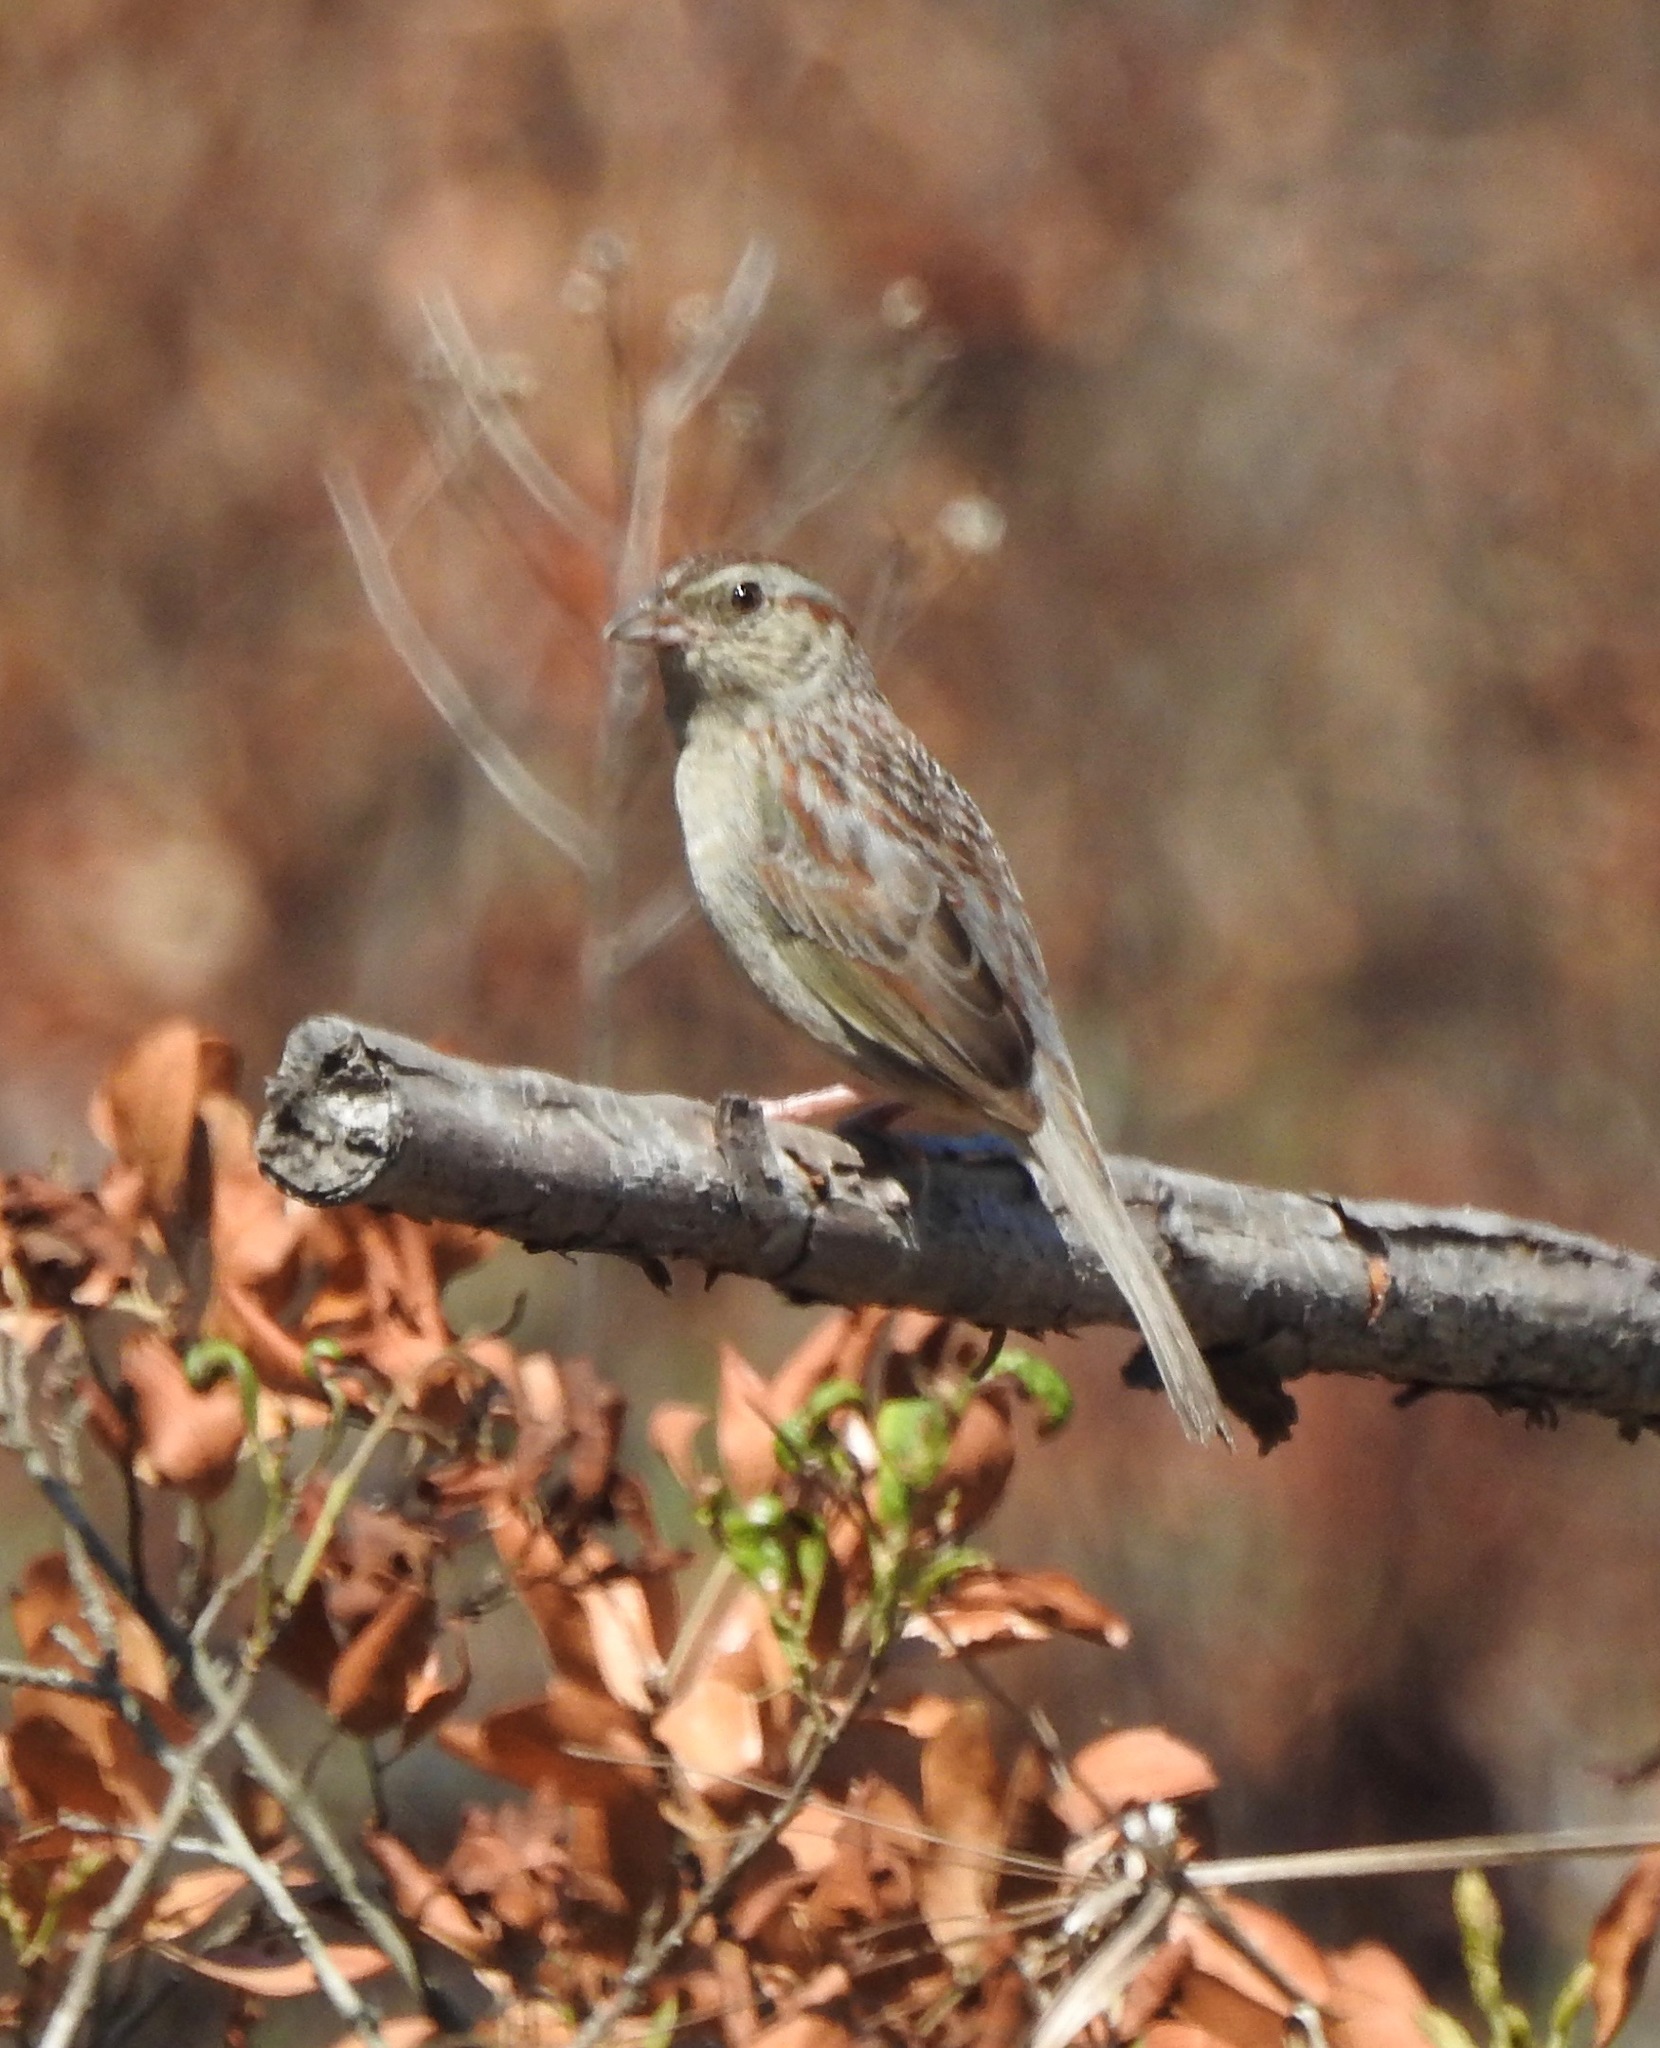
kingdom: Animalia
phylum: Chordata
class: Aves
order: Passeriformes
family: Passerellidae
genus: Peucaea
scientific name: Peucaea aestivalis
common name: Bachman's sparrow
